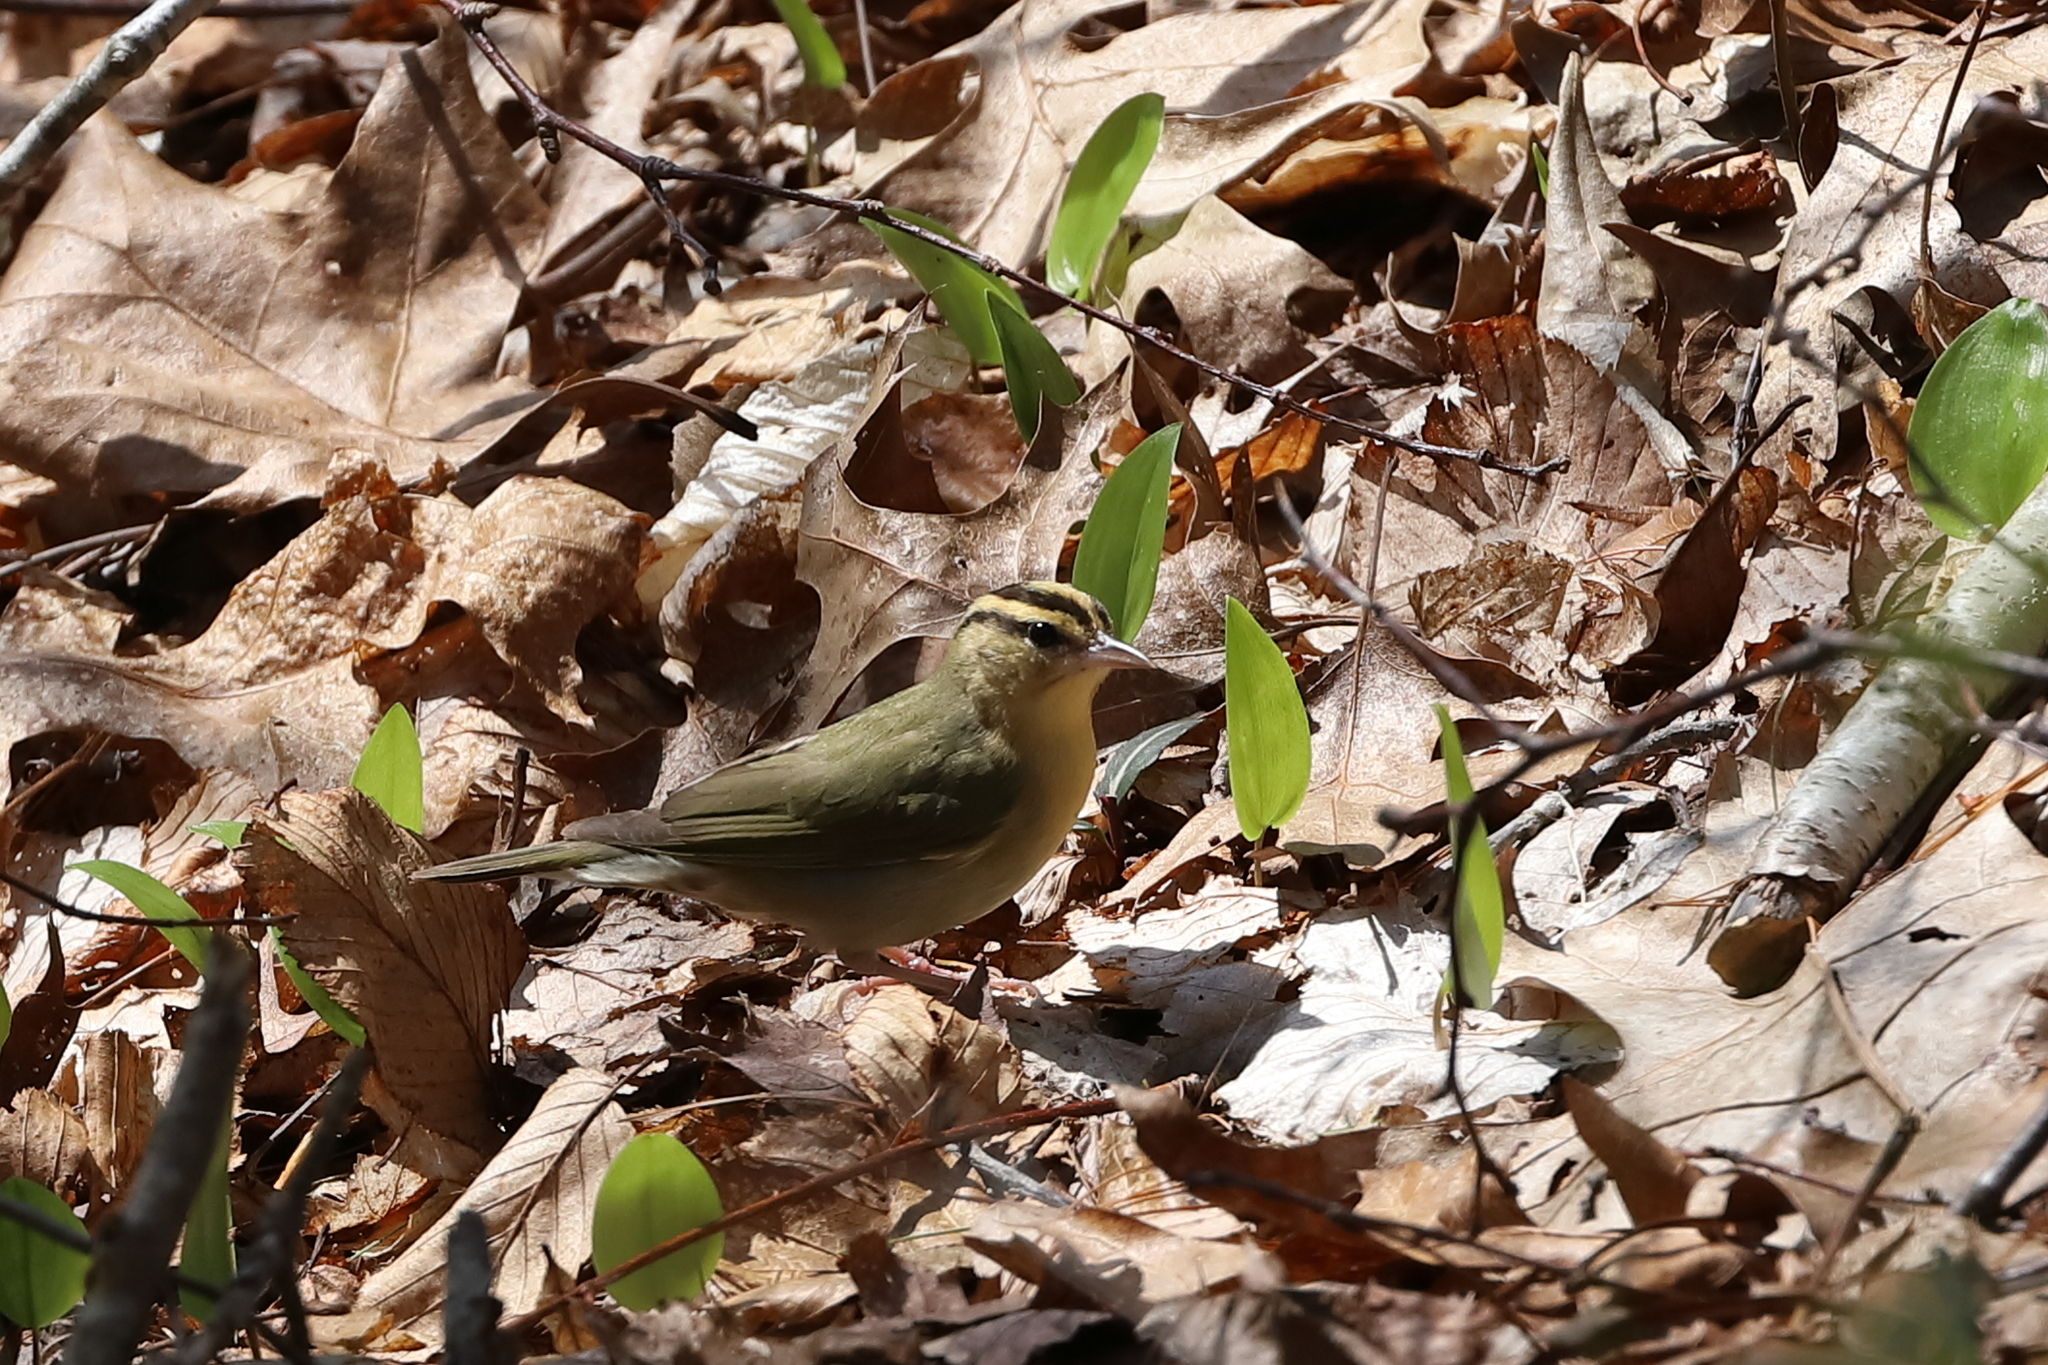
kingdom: Animalia
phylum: Chordata
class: Aves
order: Passeriformes
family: Parulidae
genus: Helmitheros
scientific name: Helmitheros vermivorum
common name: Worm-eating warbler
